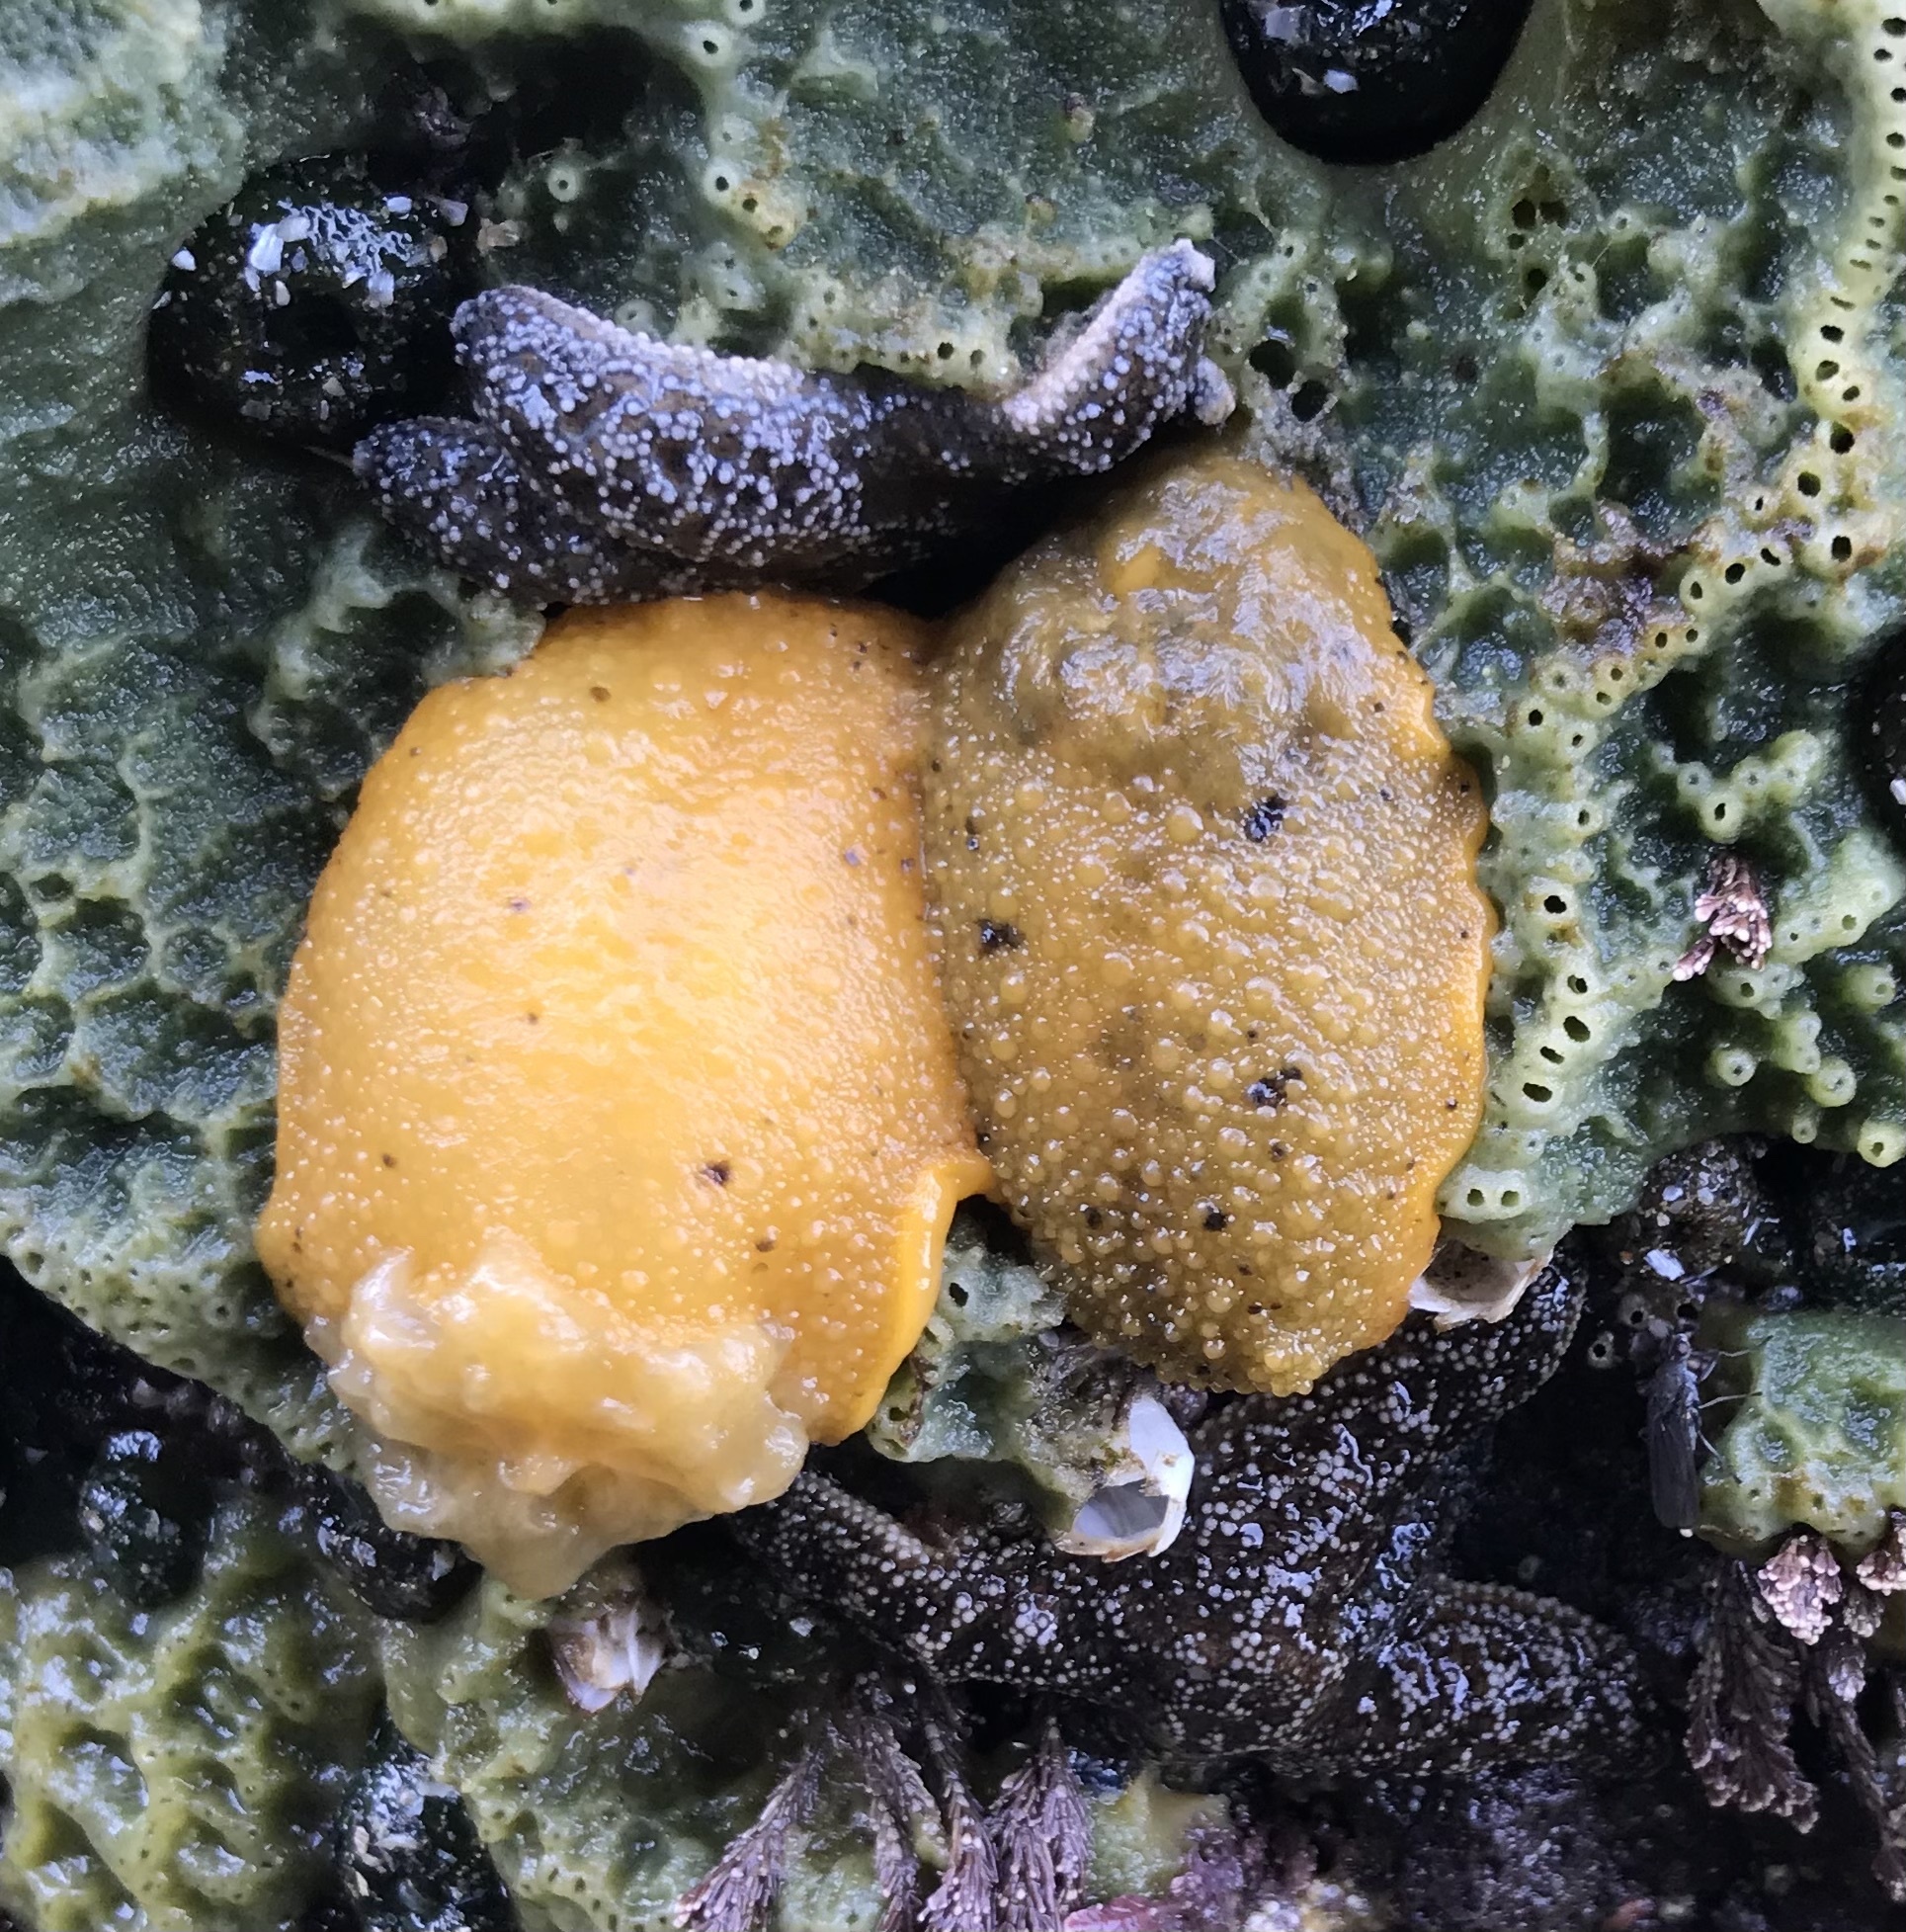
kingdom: Animalia
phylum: Mollusca
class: Gastropoda
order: Nudibranchia
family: Dorididae
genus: Doris
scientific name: Doris montereyensis
